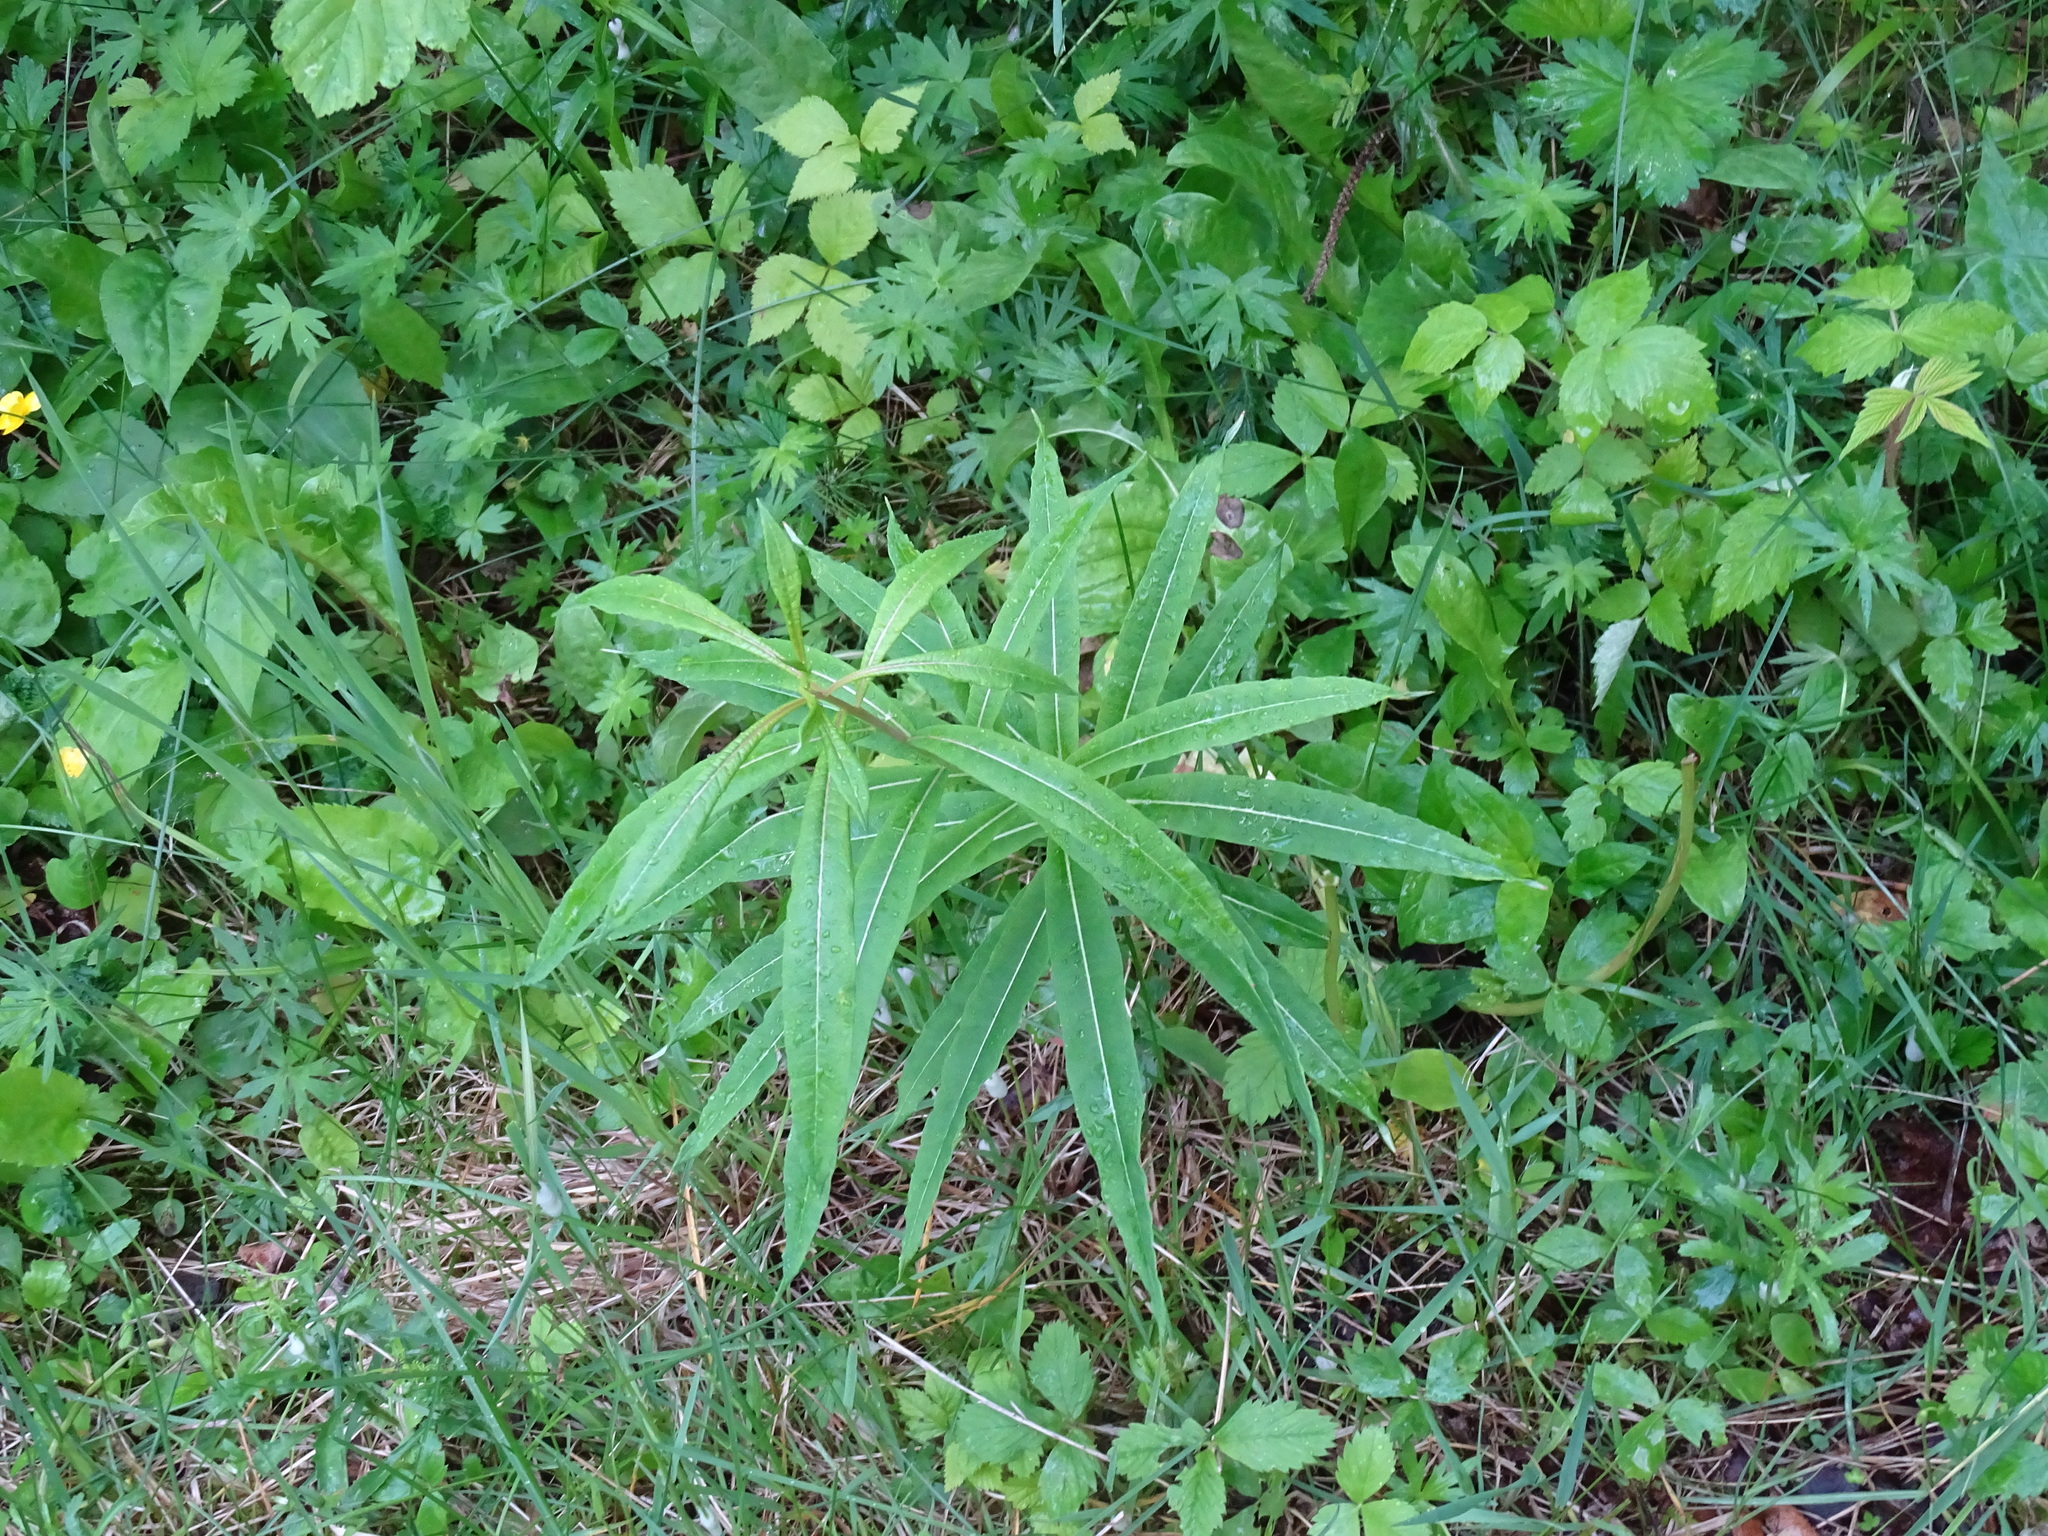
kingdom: Plantae
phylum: Tracheophyta
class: Magnoliopsida
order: Myrtales
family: Onagraceae
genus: Chamaenerion
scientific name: Chamaenerion angustifolium
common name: Fireweed
